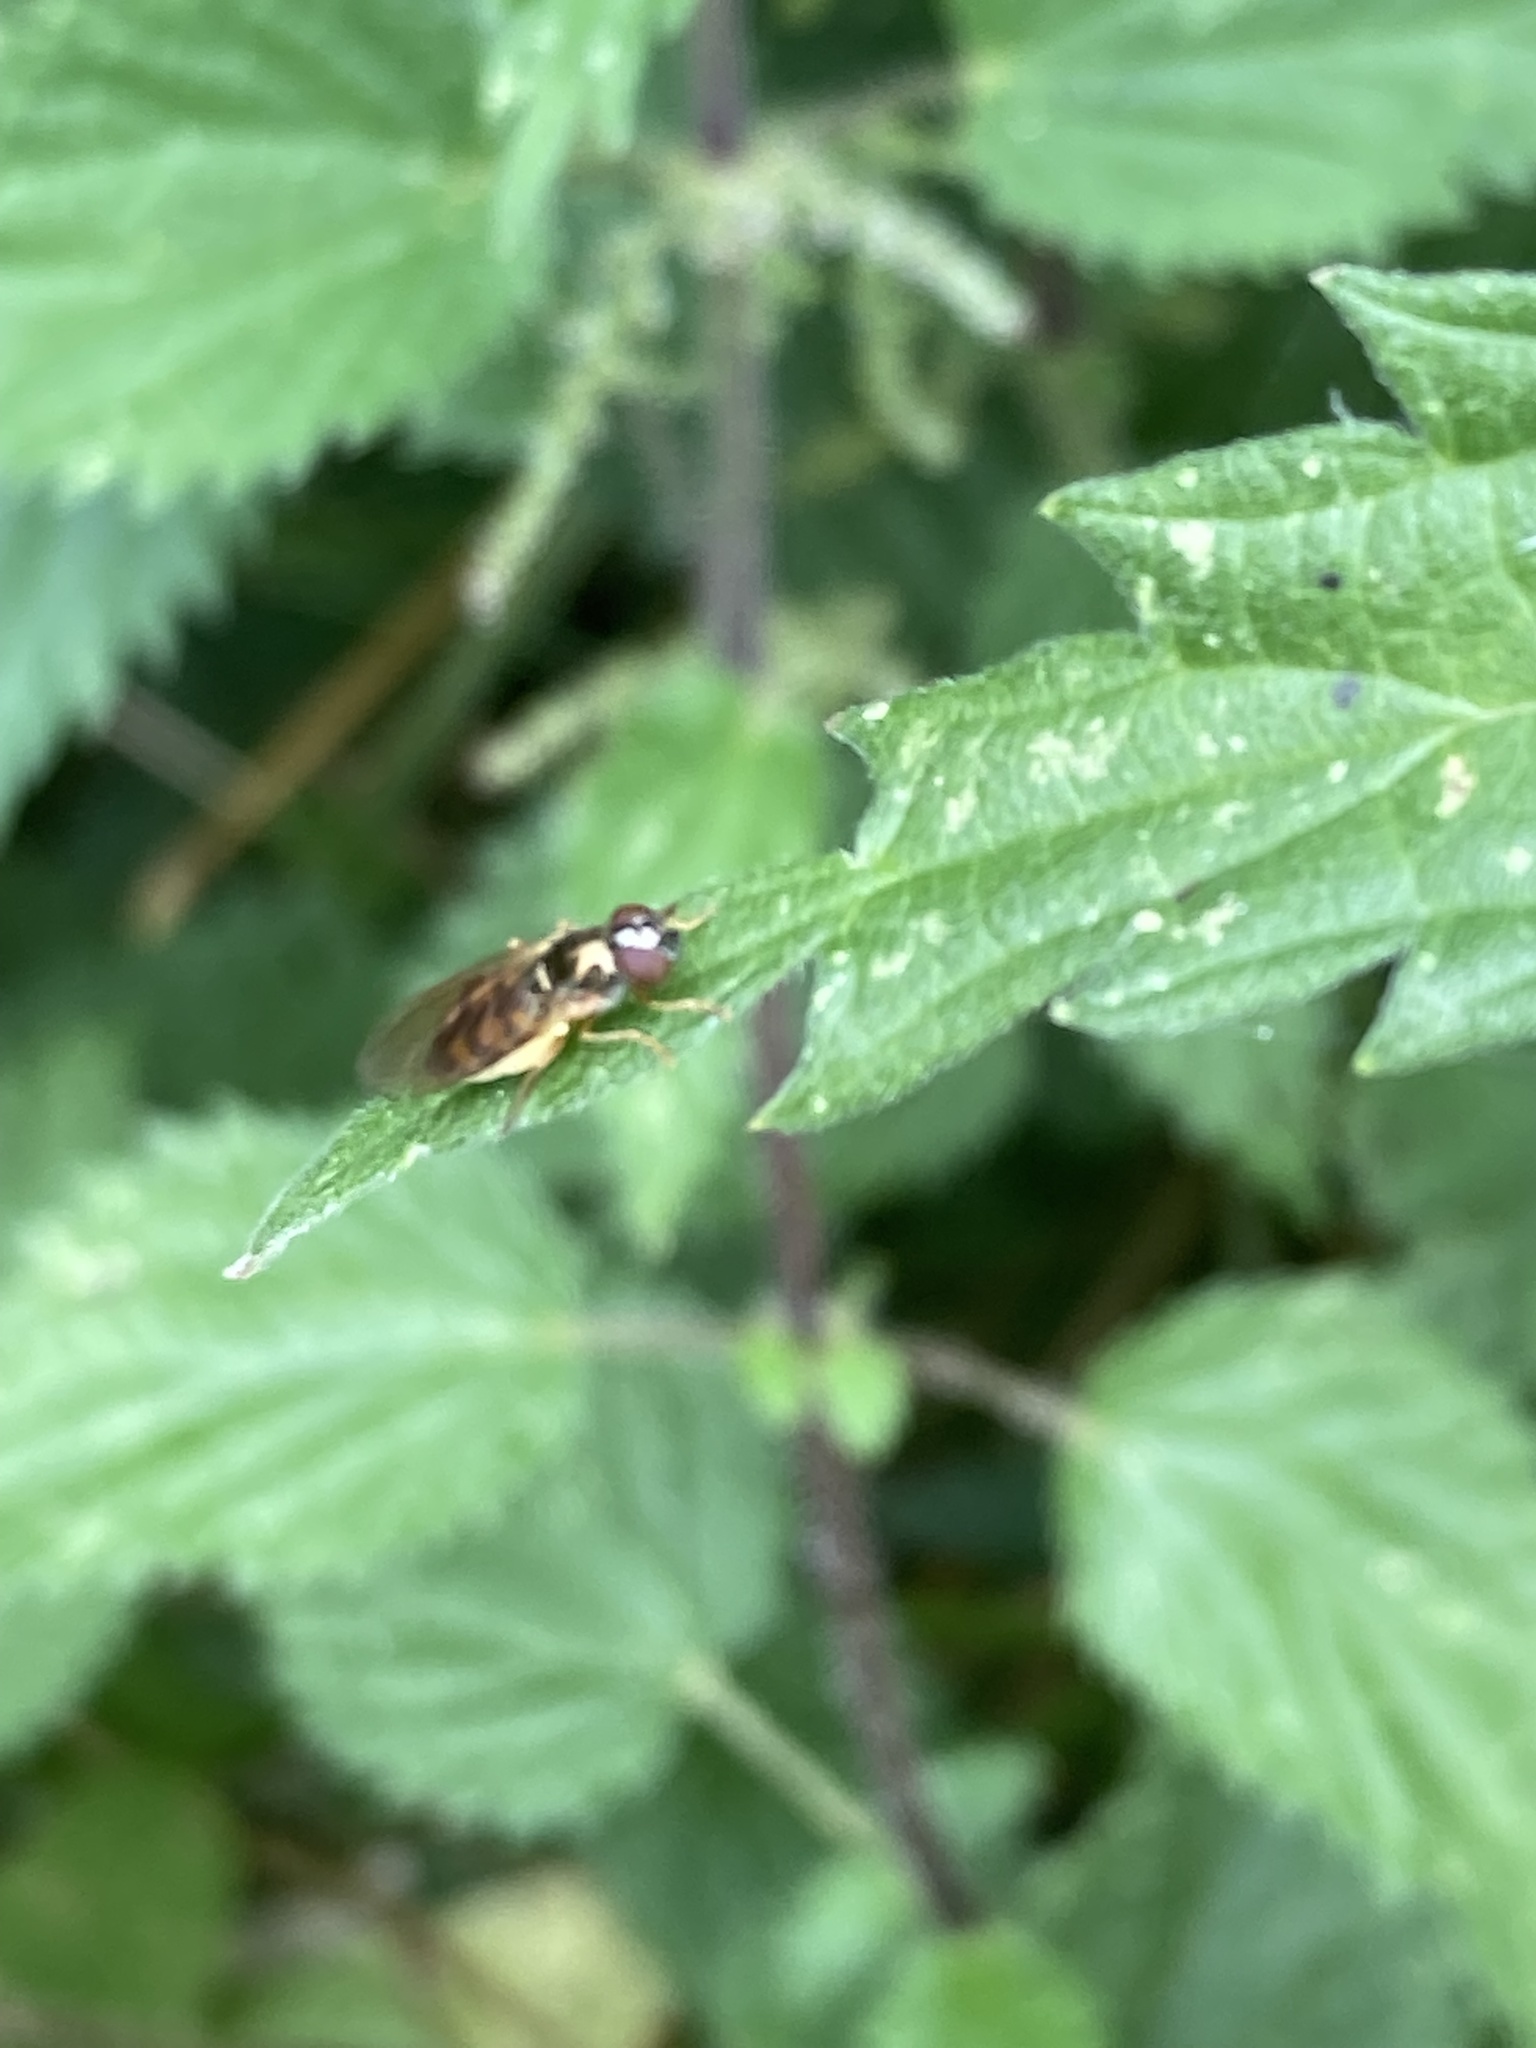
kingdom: Animalia
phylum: Arthropoda
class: Insecta
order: Diptera
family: Syrphidae
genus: Melanostoma
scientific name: Melanostoma
